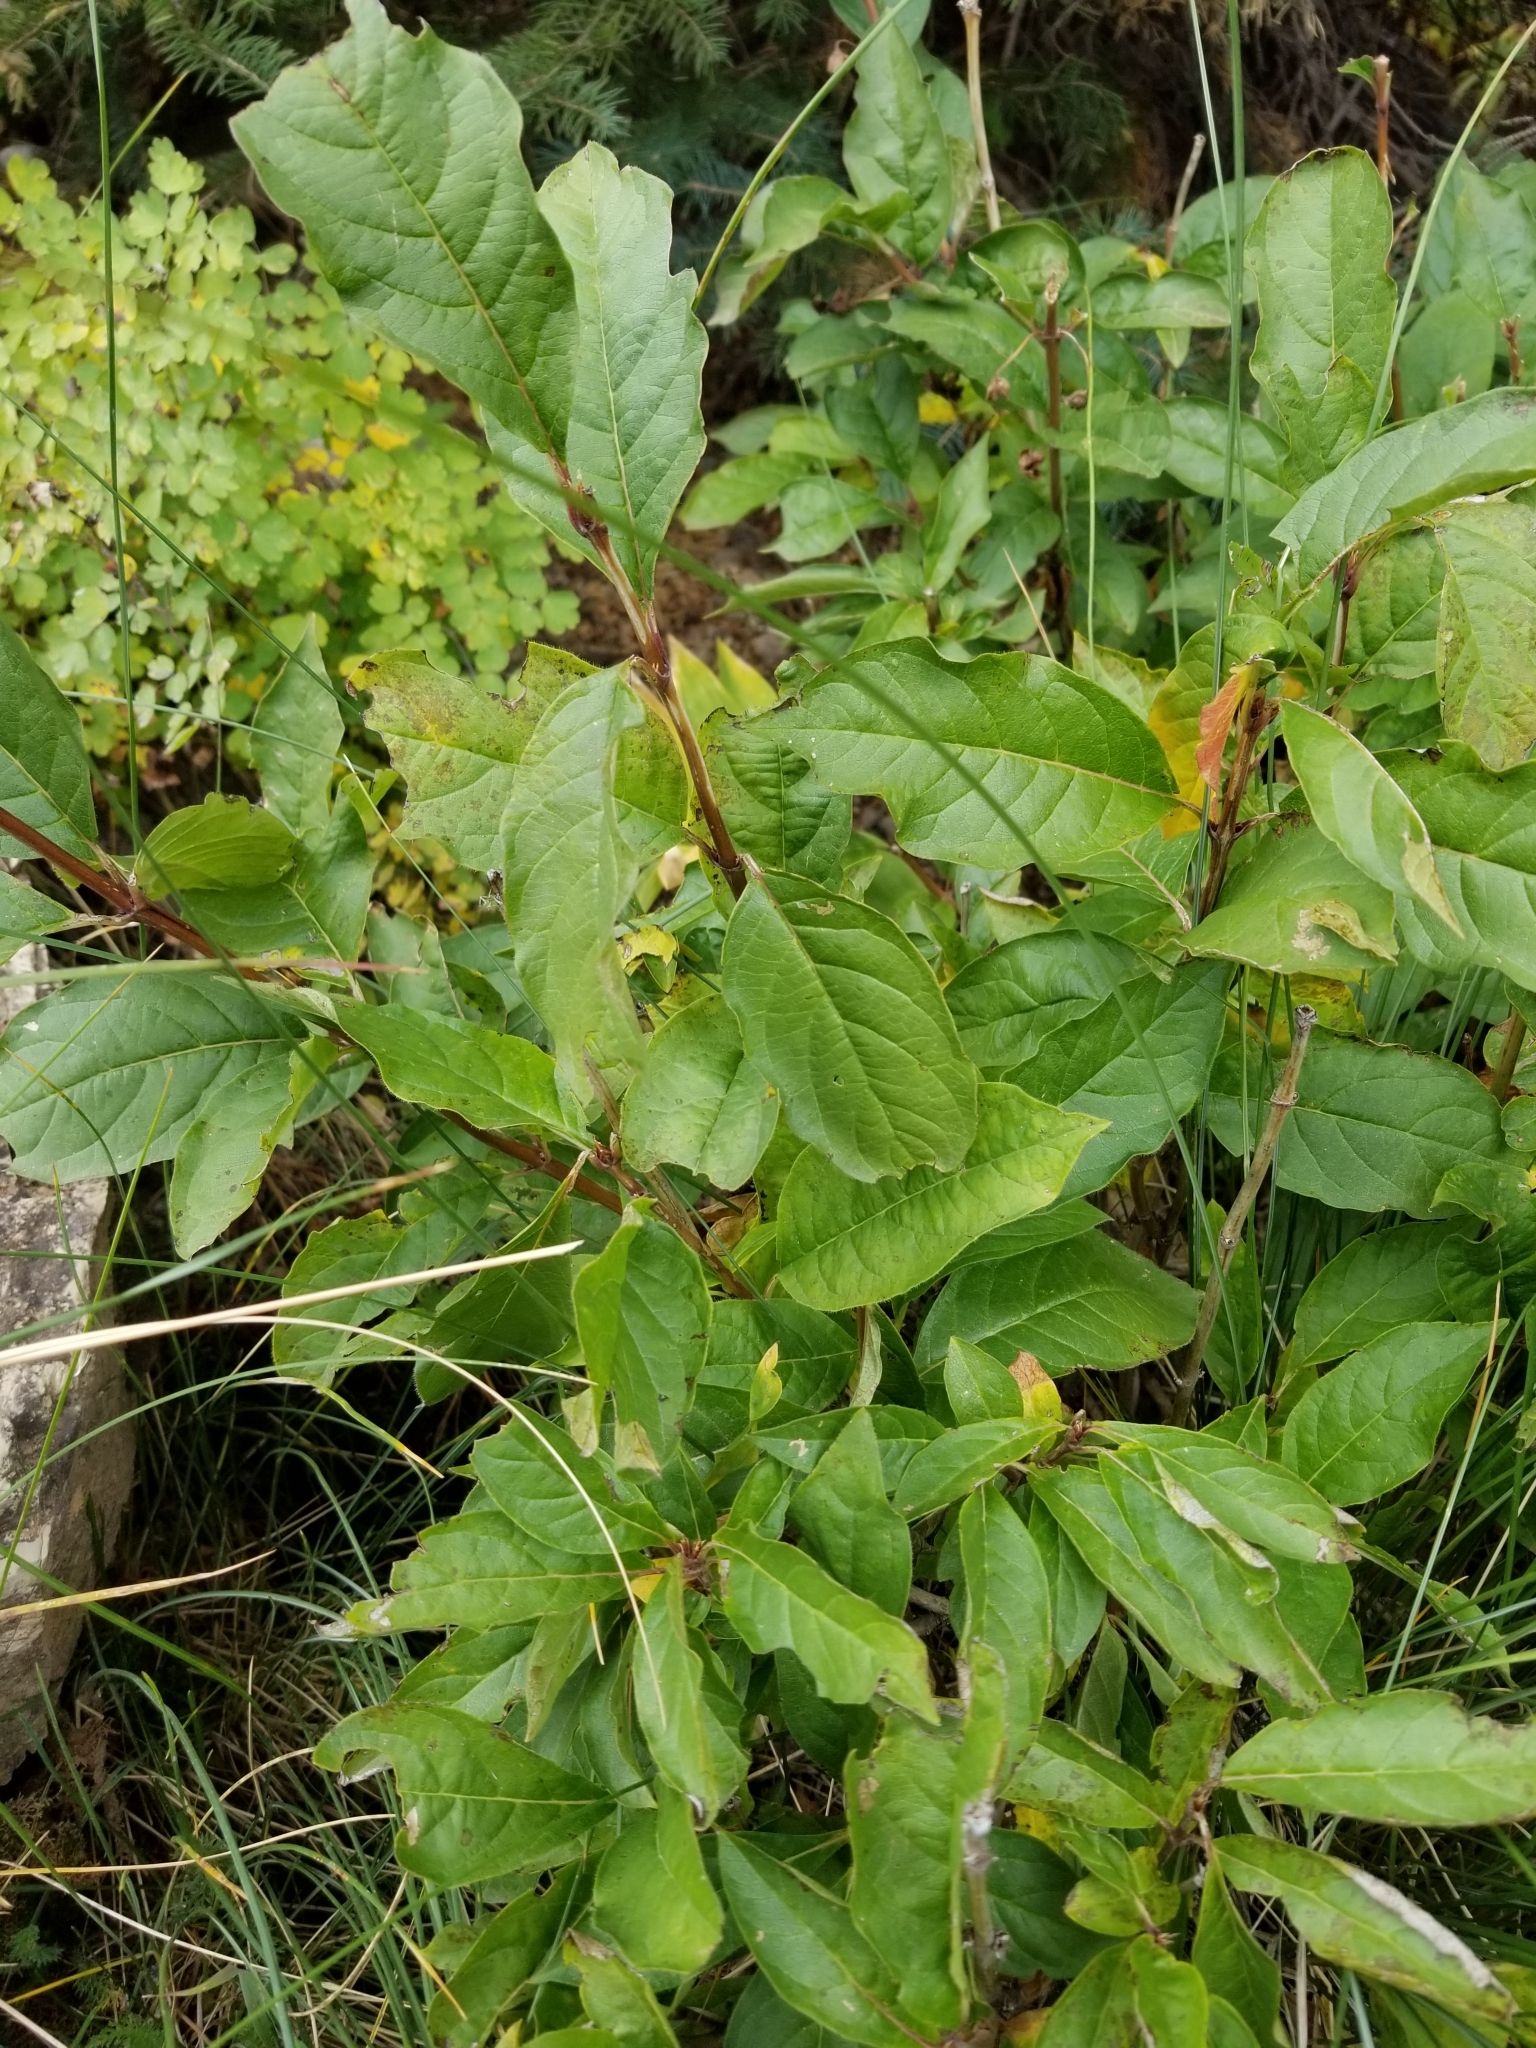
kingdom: Plantae
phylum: Tracheophyta
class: Magnoliopsida
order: Dipsacales
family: Caprifoliaceae
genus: Lonicera
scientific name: Lonicera involucrata
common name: Californian honeysuckle
